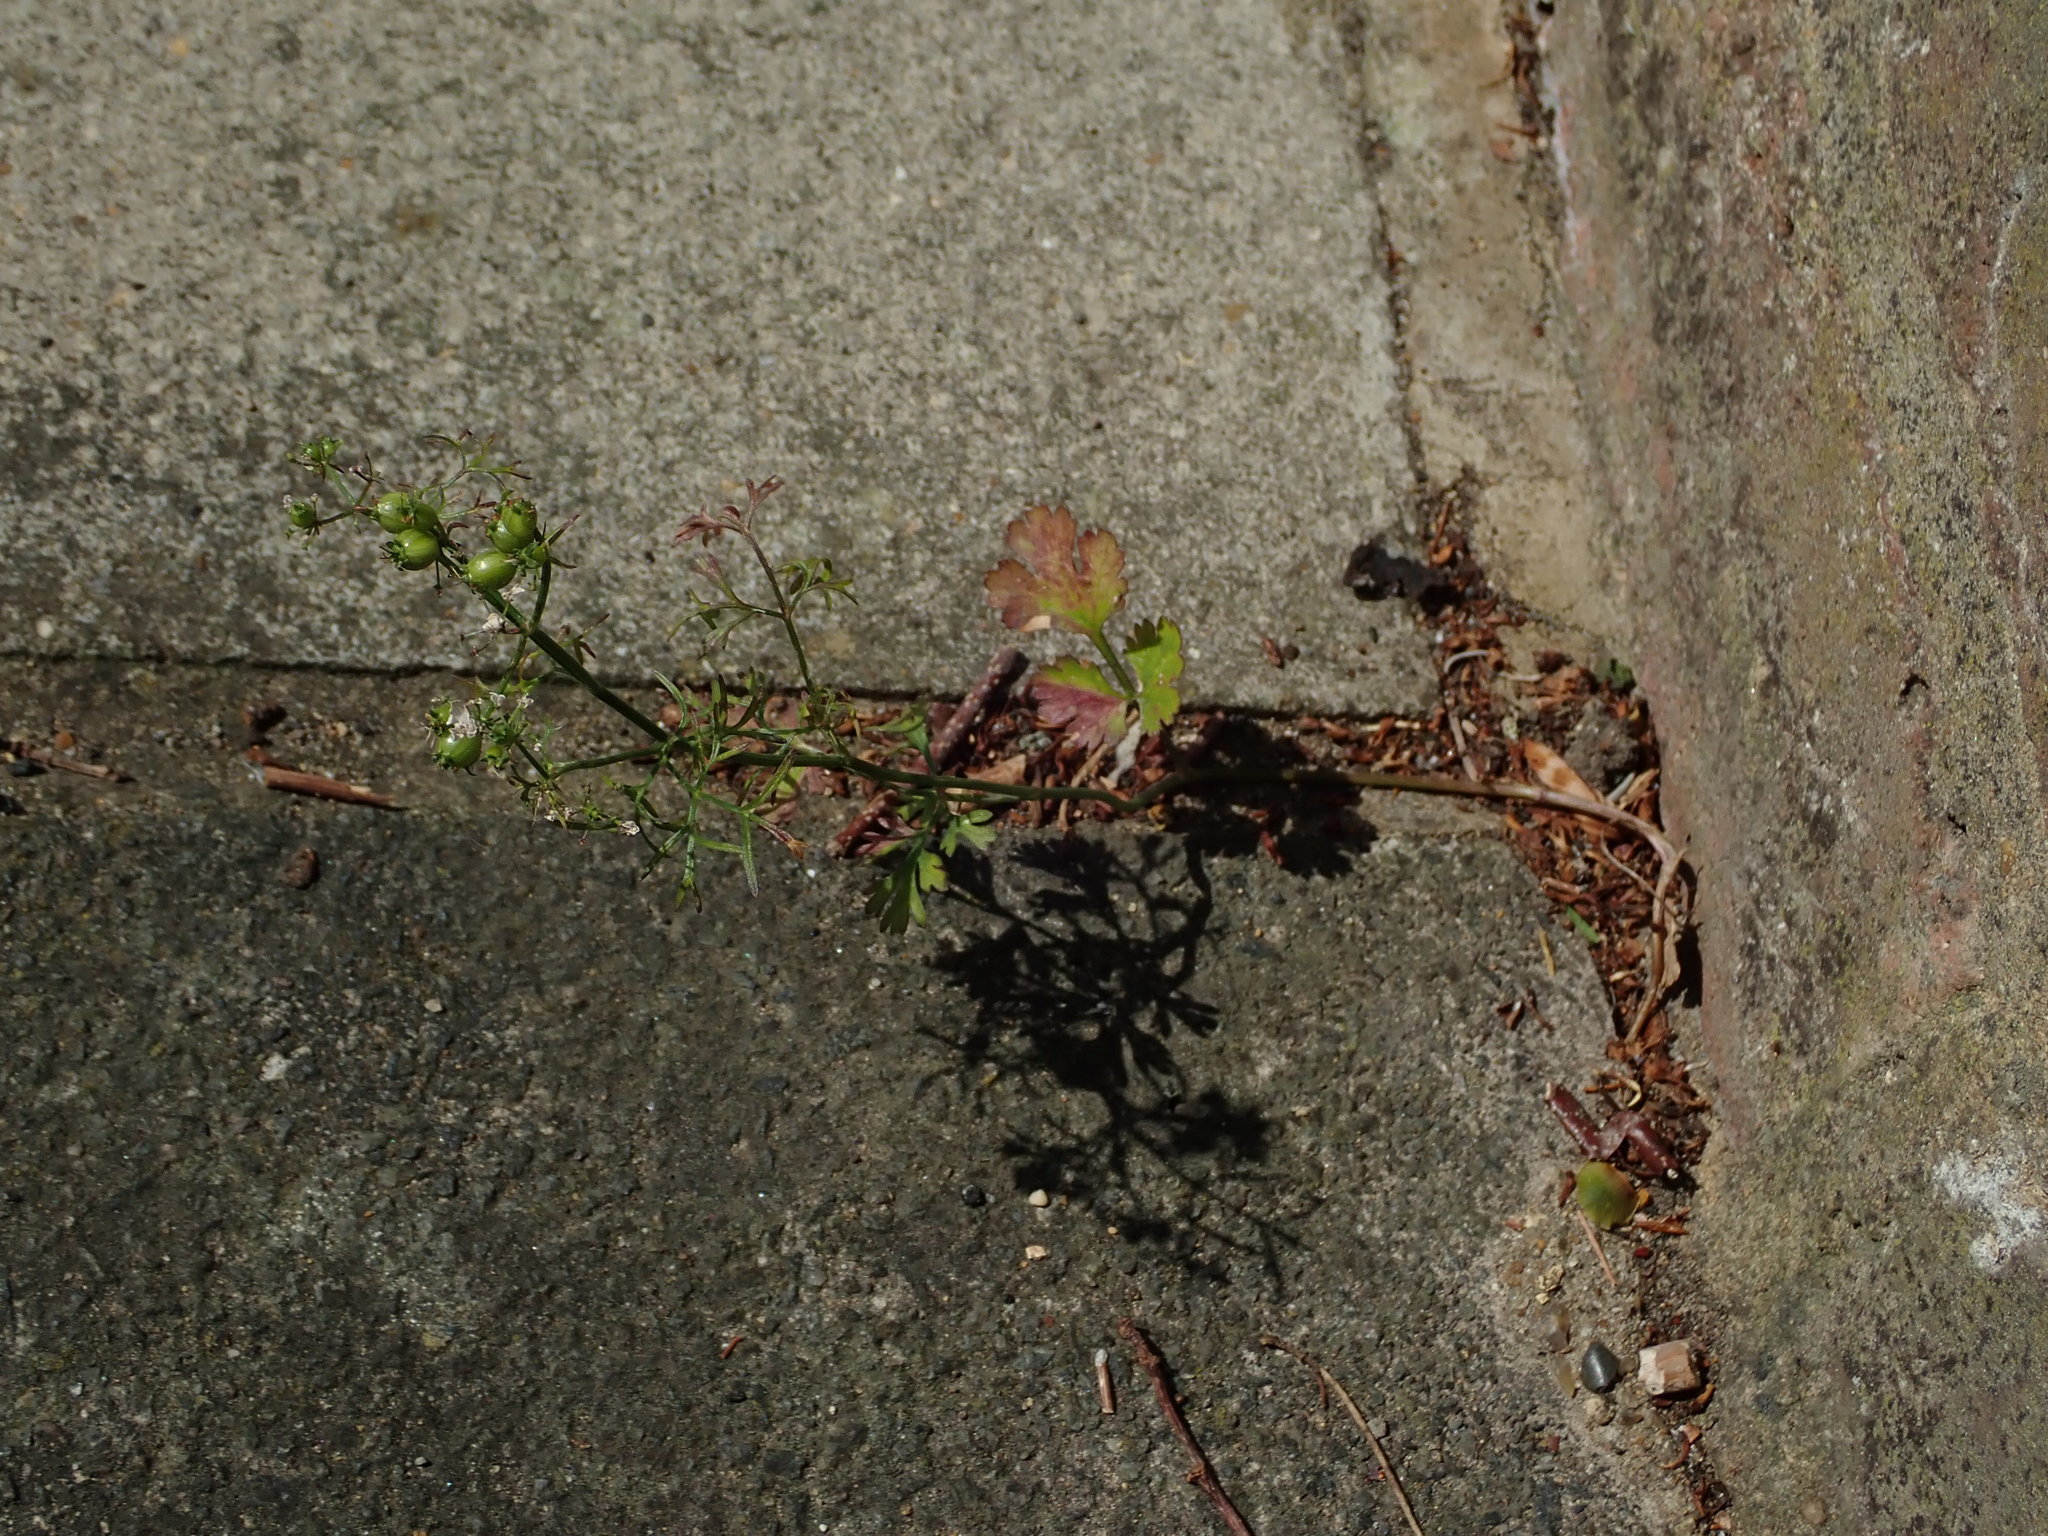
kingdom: Plantae
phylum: Tracheophyta
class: Magnoliopsida
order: Apiales
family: Apiaceae
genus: Coriandrum
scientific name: Coriandrum sativum
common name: Coriander
